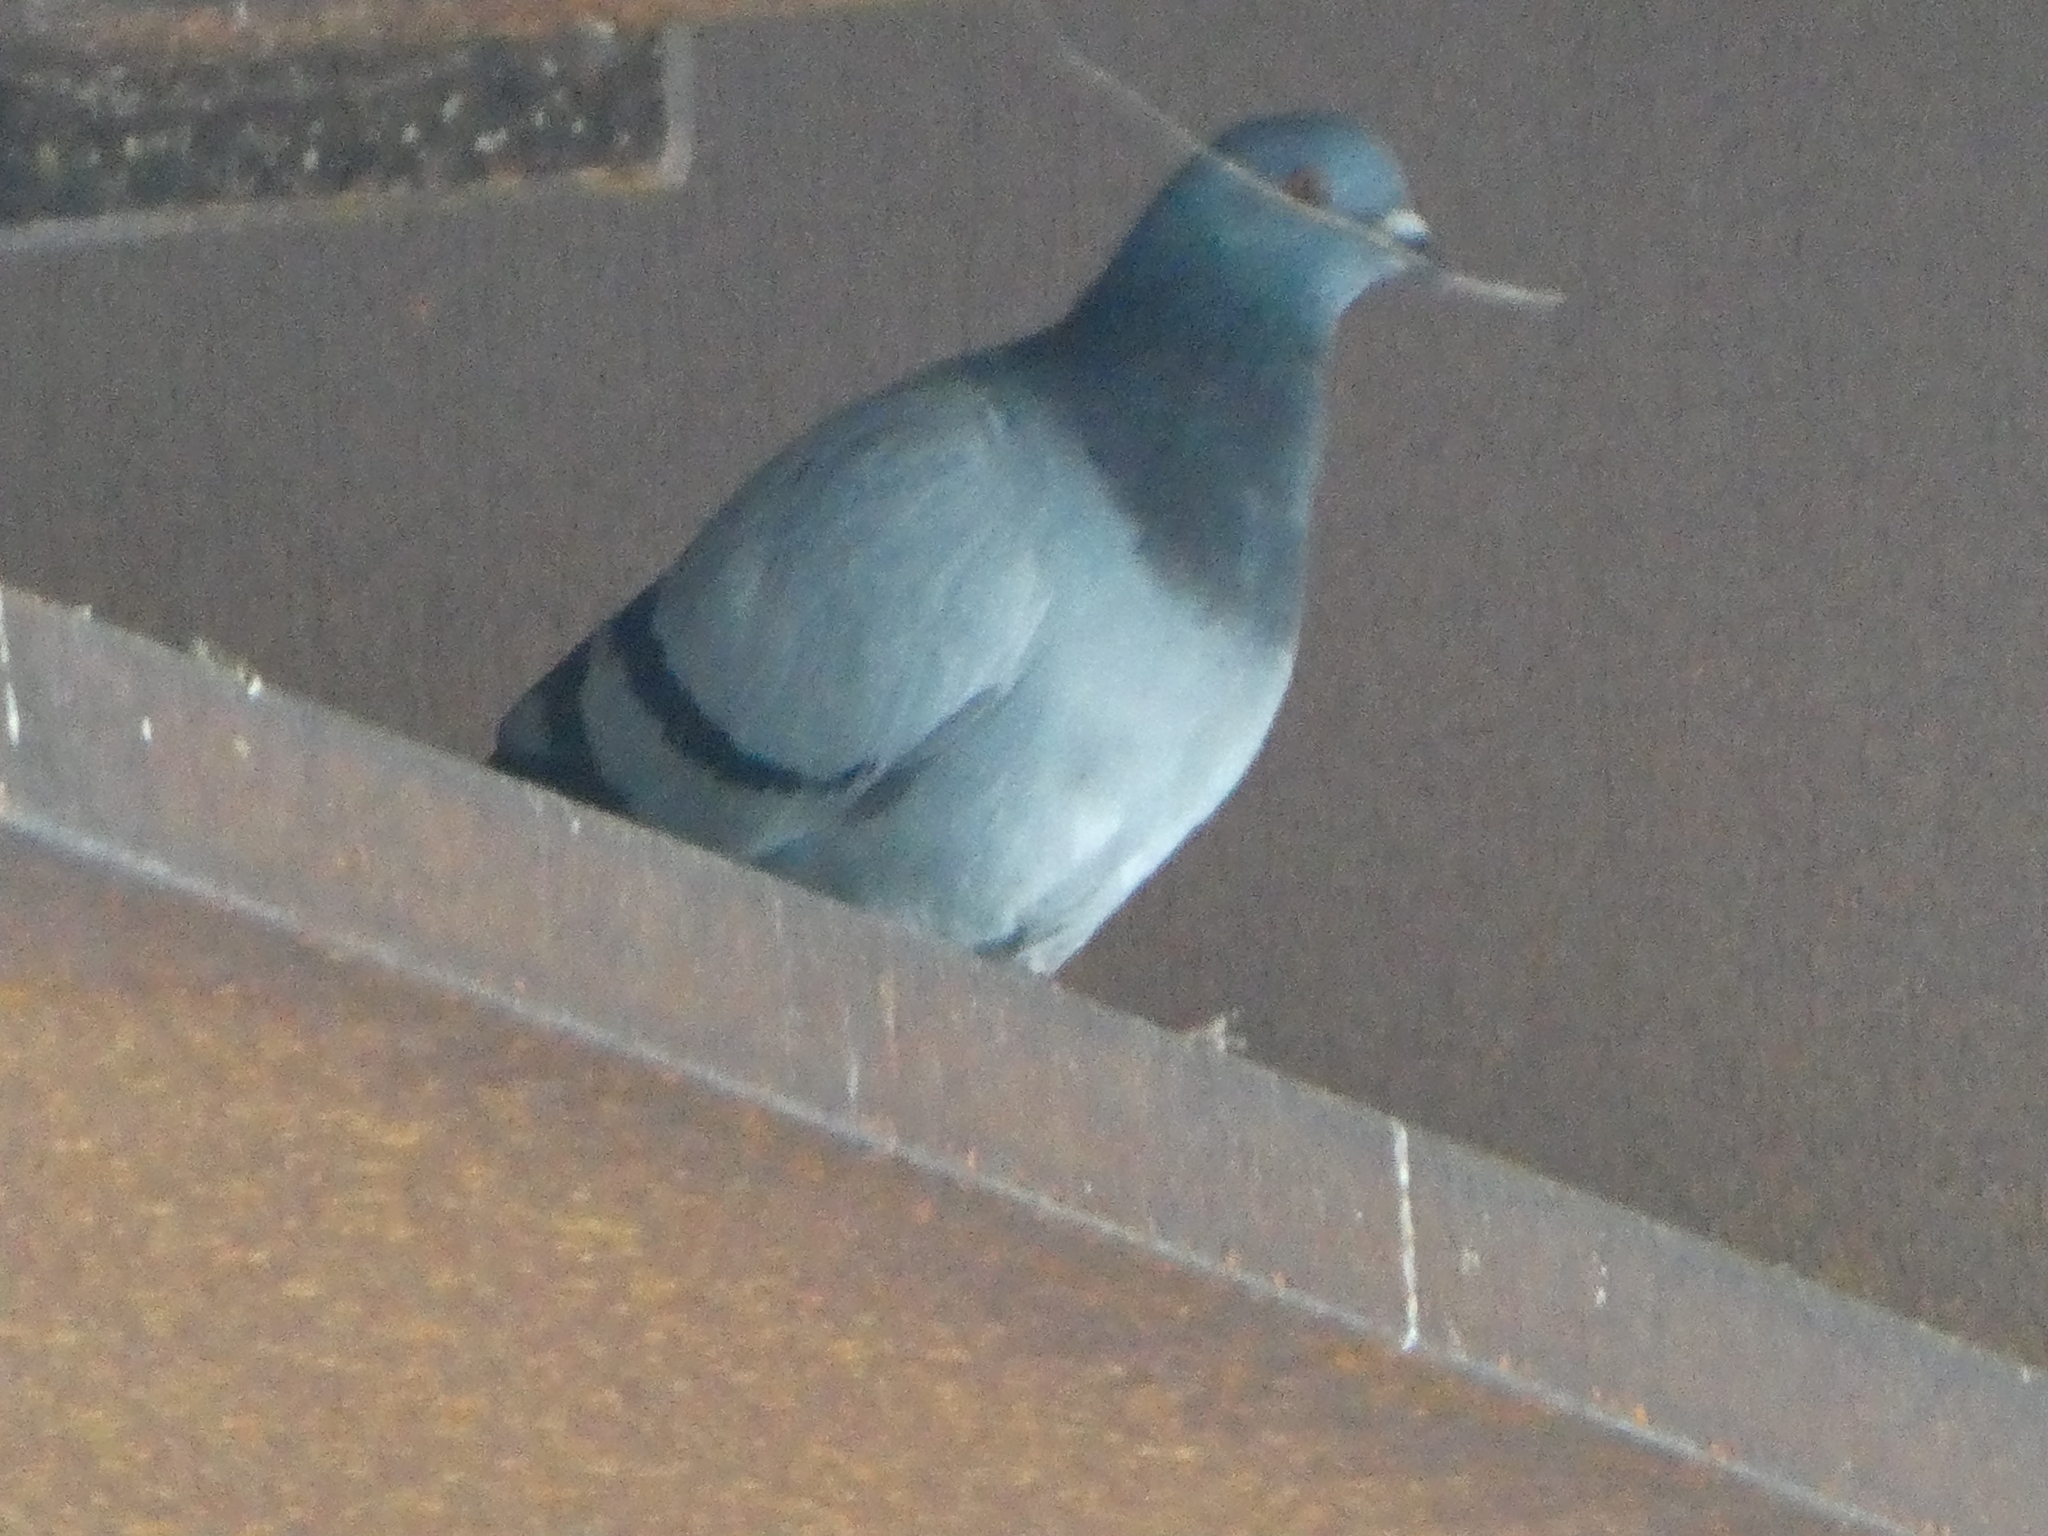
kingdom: Animalia
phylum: Chordata
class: Aves
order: Columbiformes
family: Columbidae
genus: Columba
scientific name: Columba livia
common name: Rock pigeon
